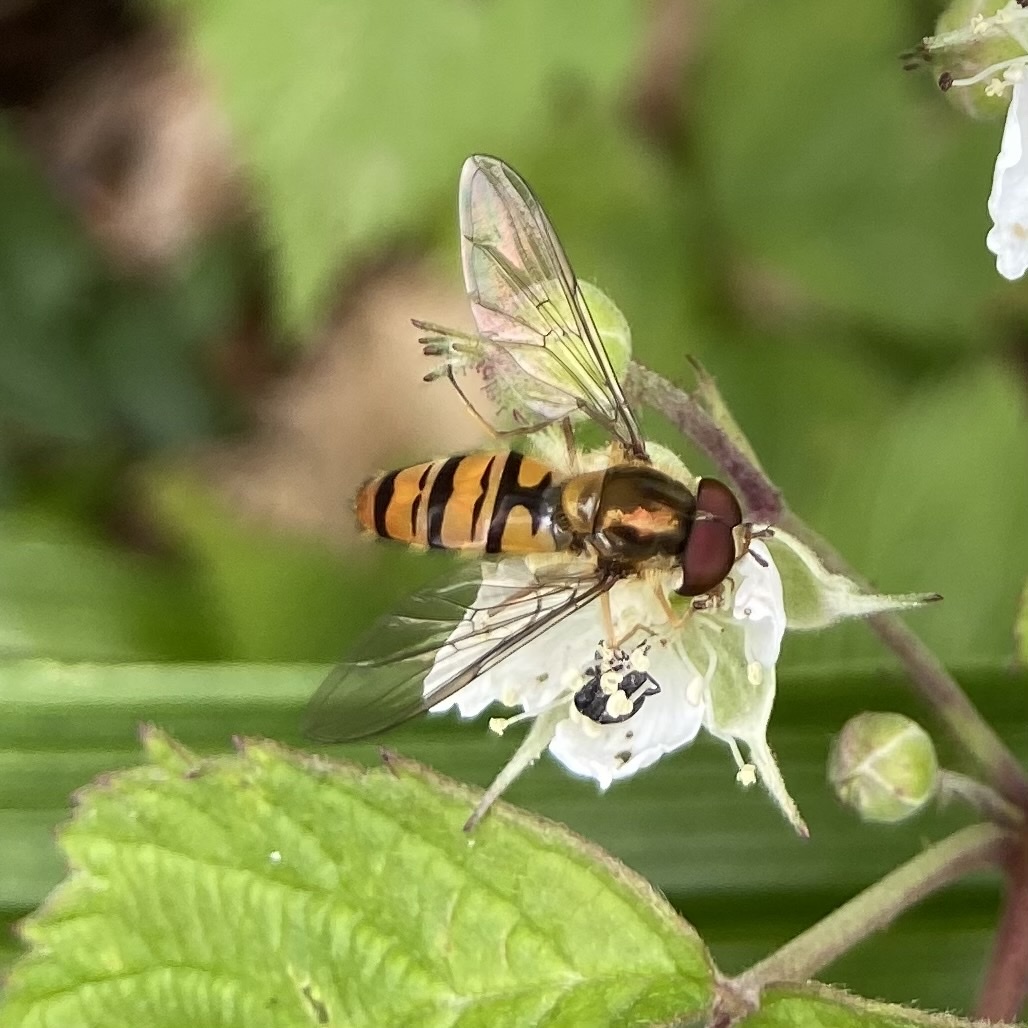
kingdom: Animalia
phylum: Arthropoda
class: Insecta
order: Diptera
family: Syrphidae
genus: Episyrphus
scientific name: Episyrphus balteatus
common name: Marmalade hoverfly
